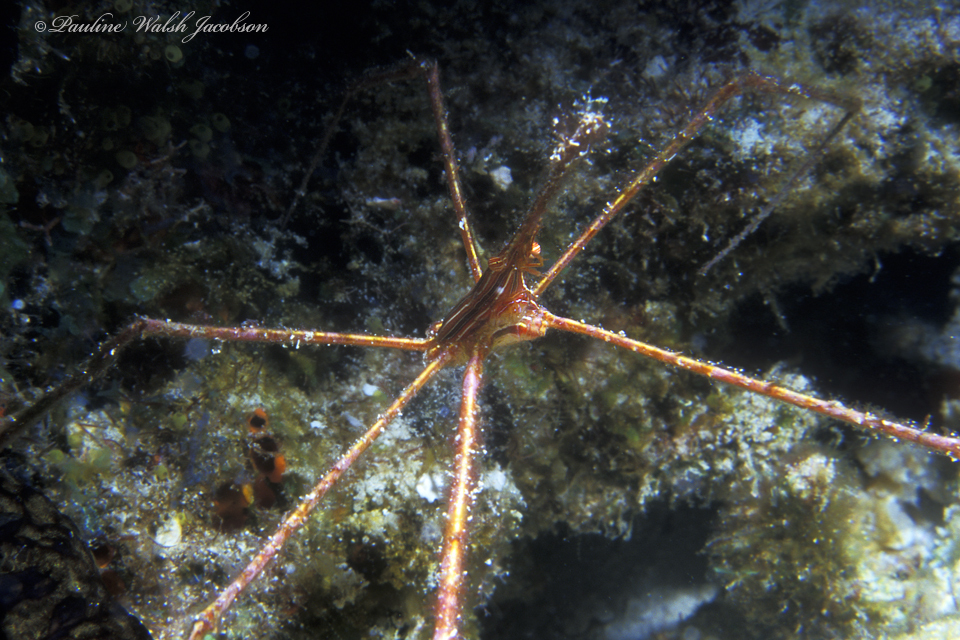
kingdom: Animalia
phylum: Arthropoda
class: Malacostraca
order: Decapoda
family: Inachoididae
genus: Stenorhynchus
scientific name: Stenorhynchus seticornis
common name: Arrow crab
